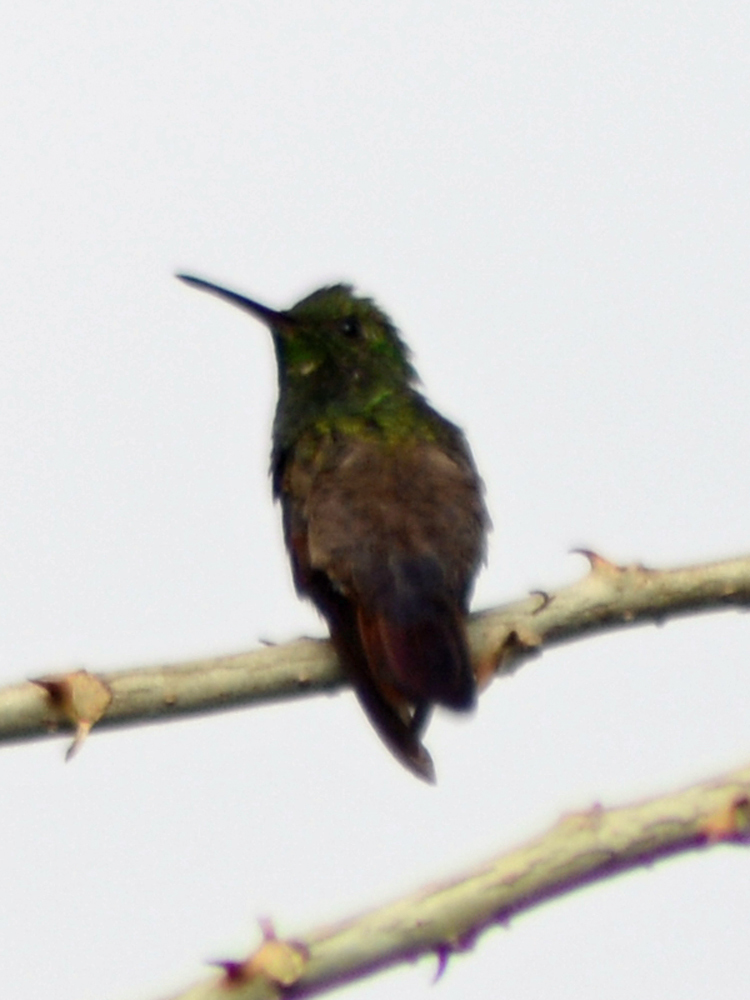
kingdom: Animalia
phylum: Chordata
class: Aves
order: Apodiformes
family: Trochilidae
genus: Saucerottia
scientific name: Saucerottia beryllina
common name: Berylline hummingbird
